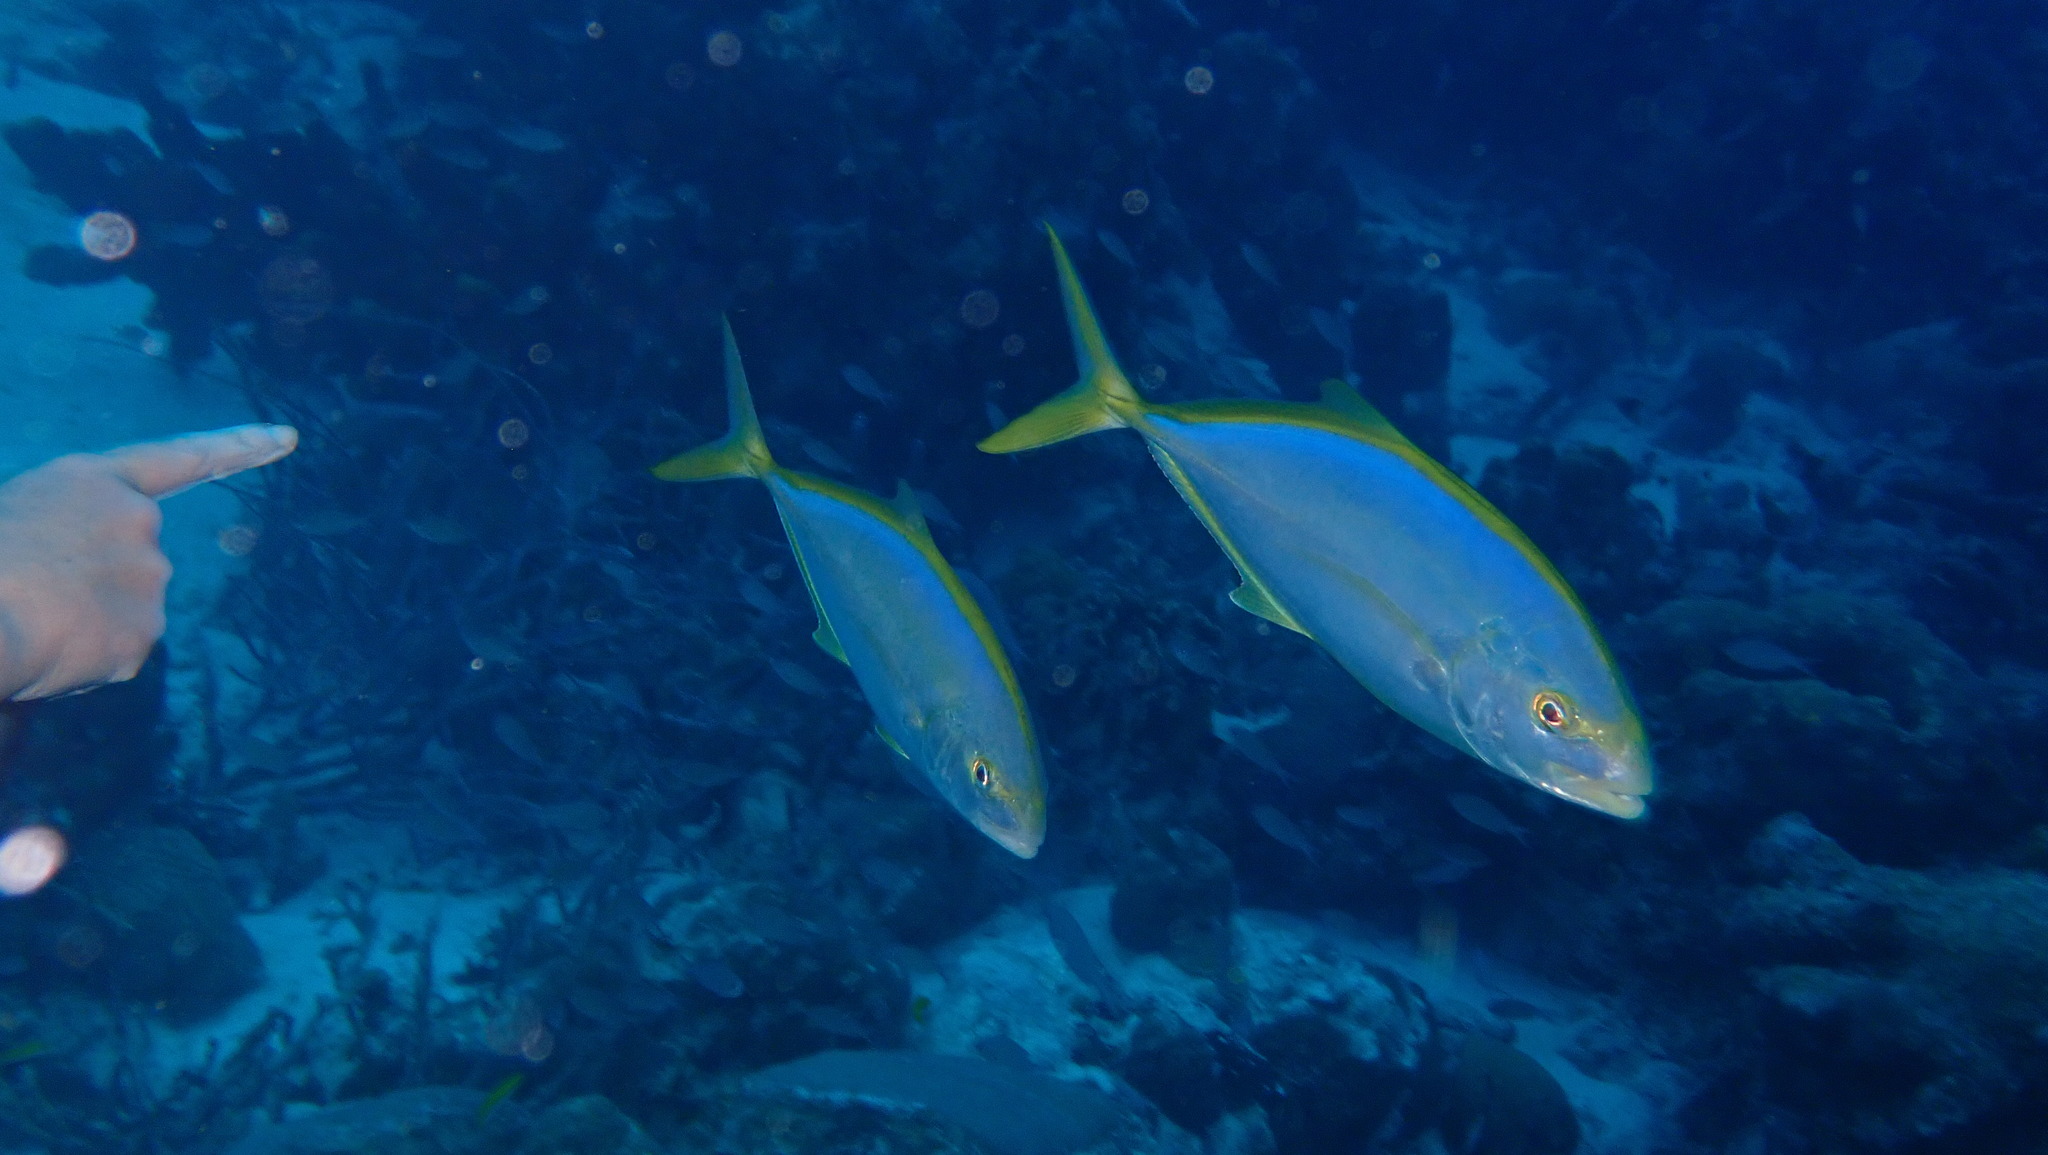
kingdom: Animalia
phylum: Chordata
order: Perciformes
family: Carangidae
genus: Carangoides
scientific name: Carangoides bartholomaei
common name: Yellow jack
